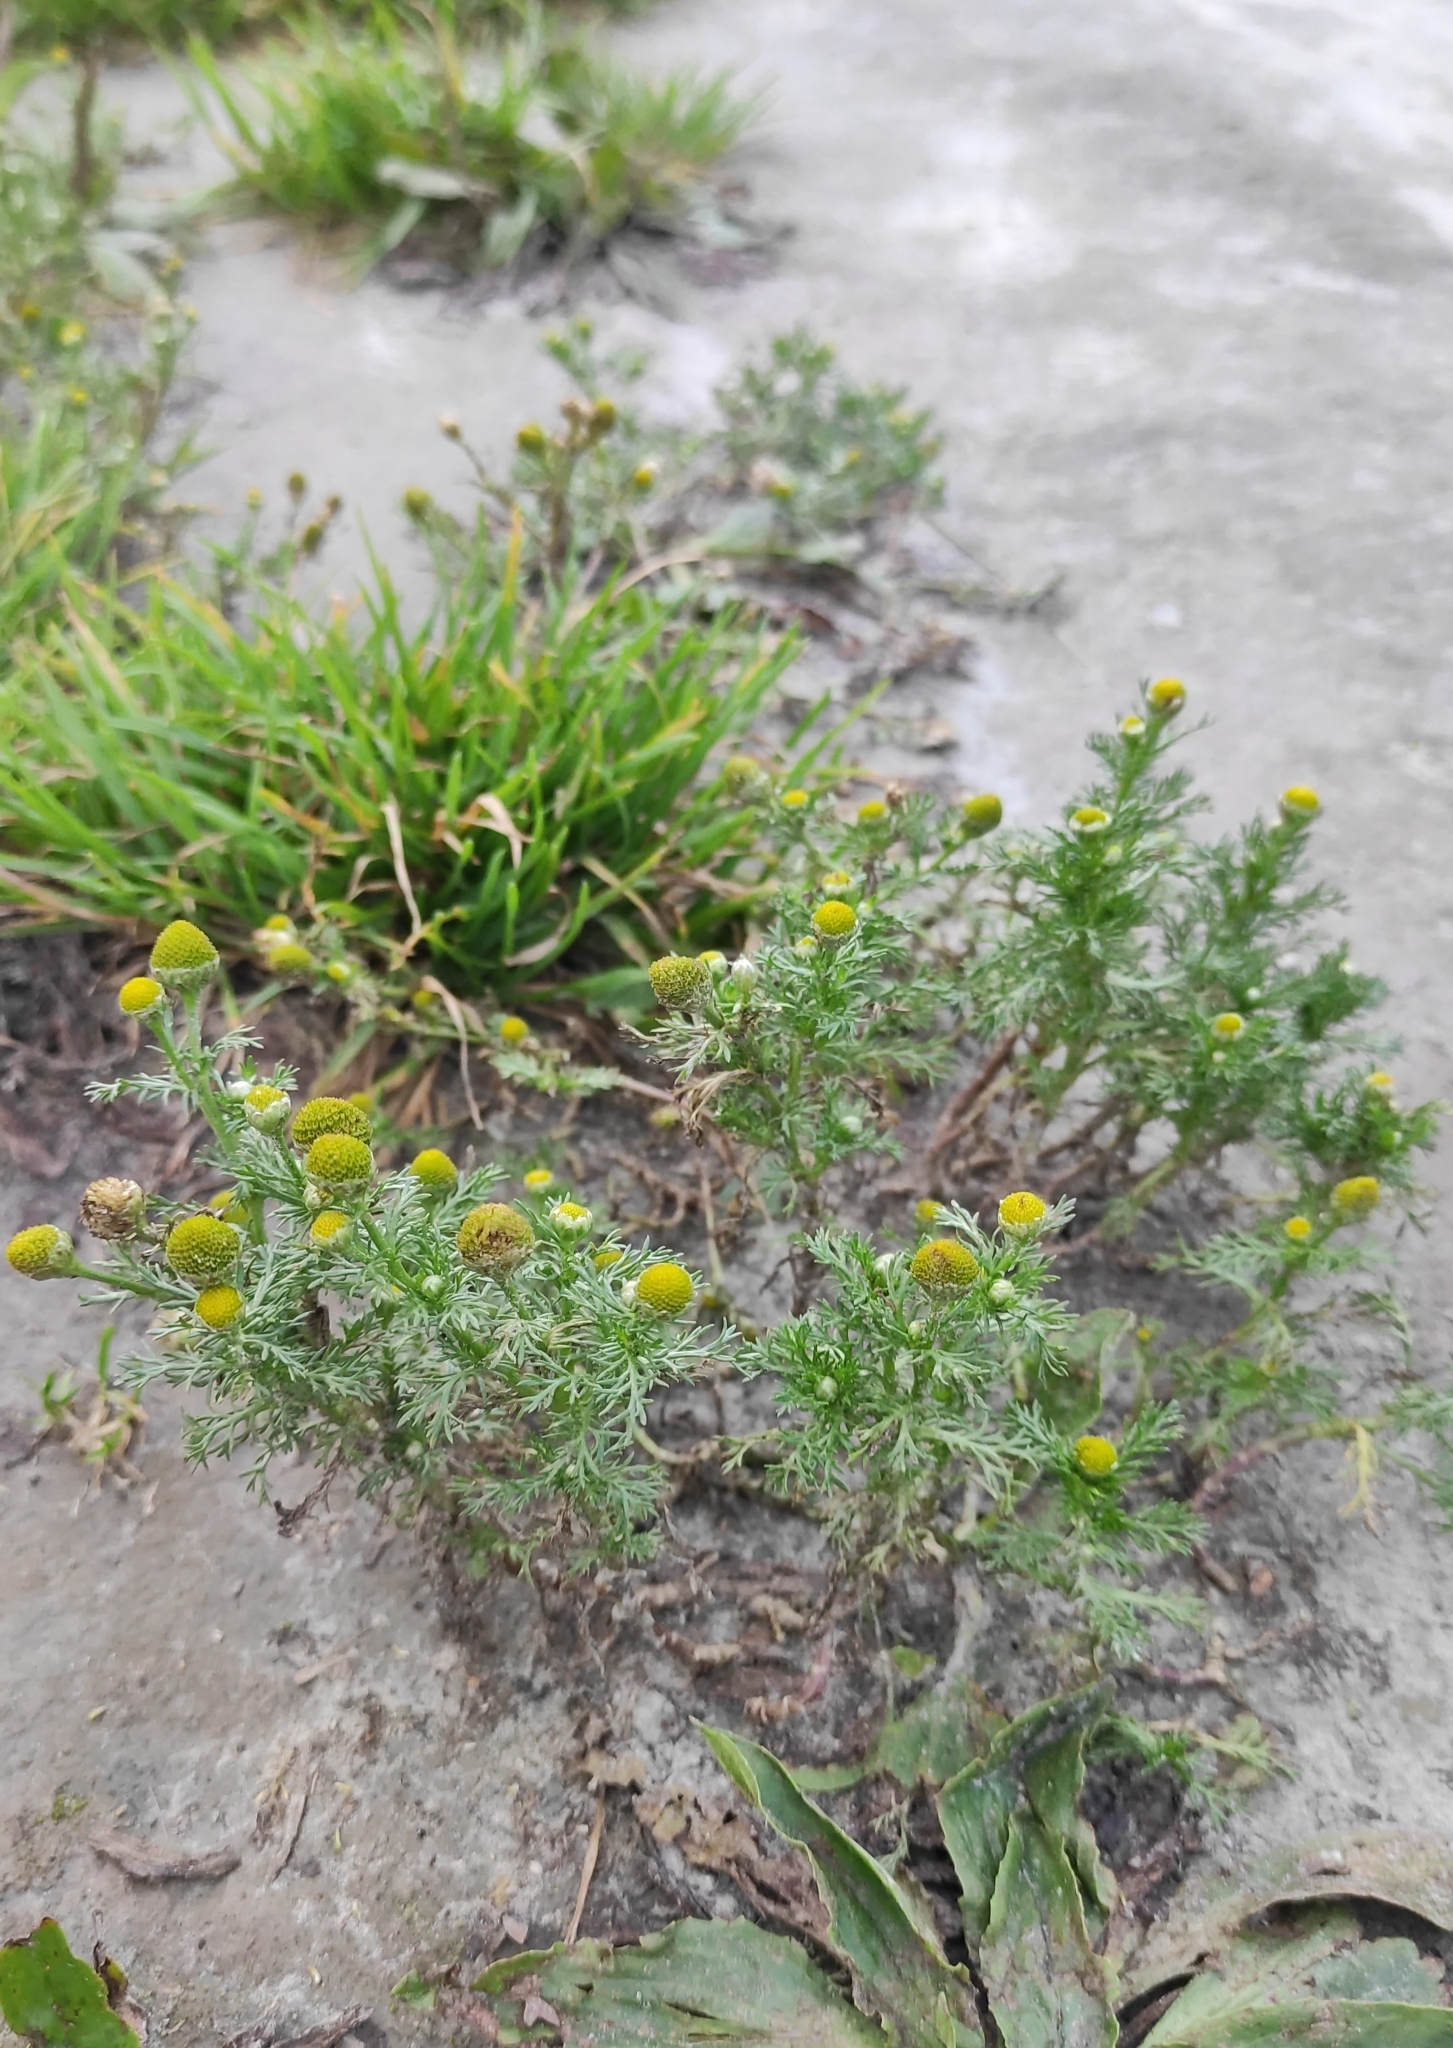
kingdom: Plantae
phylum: Tracheophyta
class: Magnoliopsida
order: Asterales
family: Asteraceae
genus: Matricaria
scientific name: Matricaria discoidea
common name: Disc mayweed
